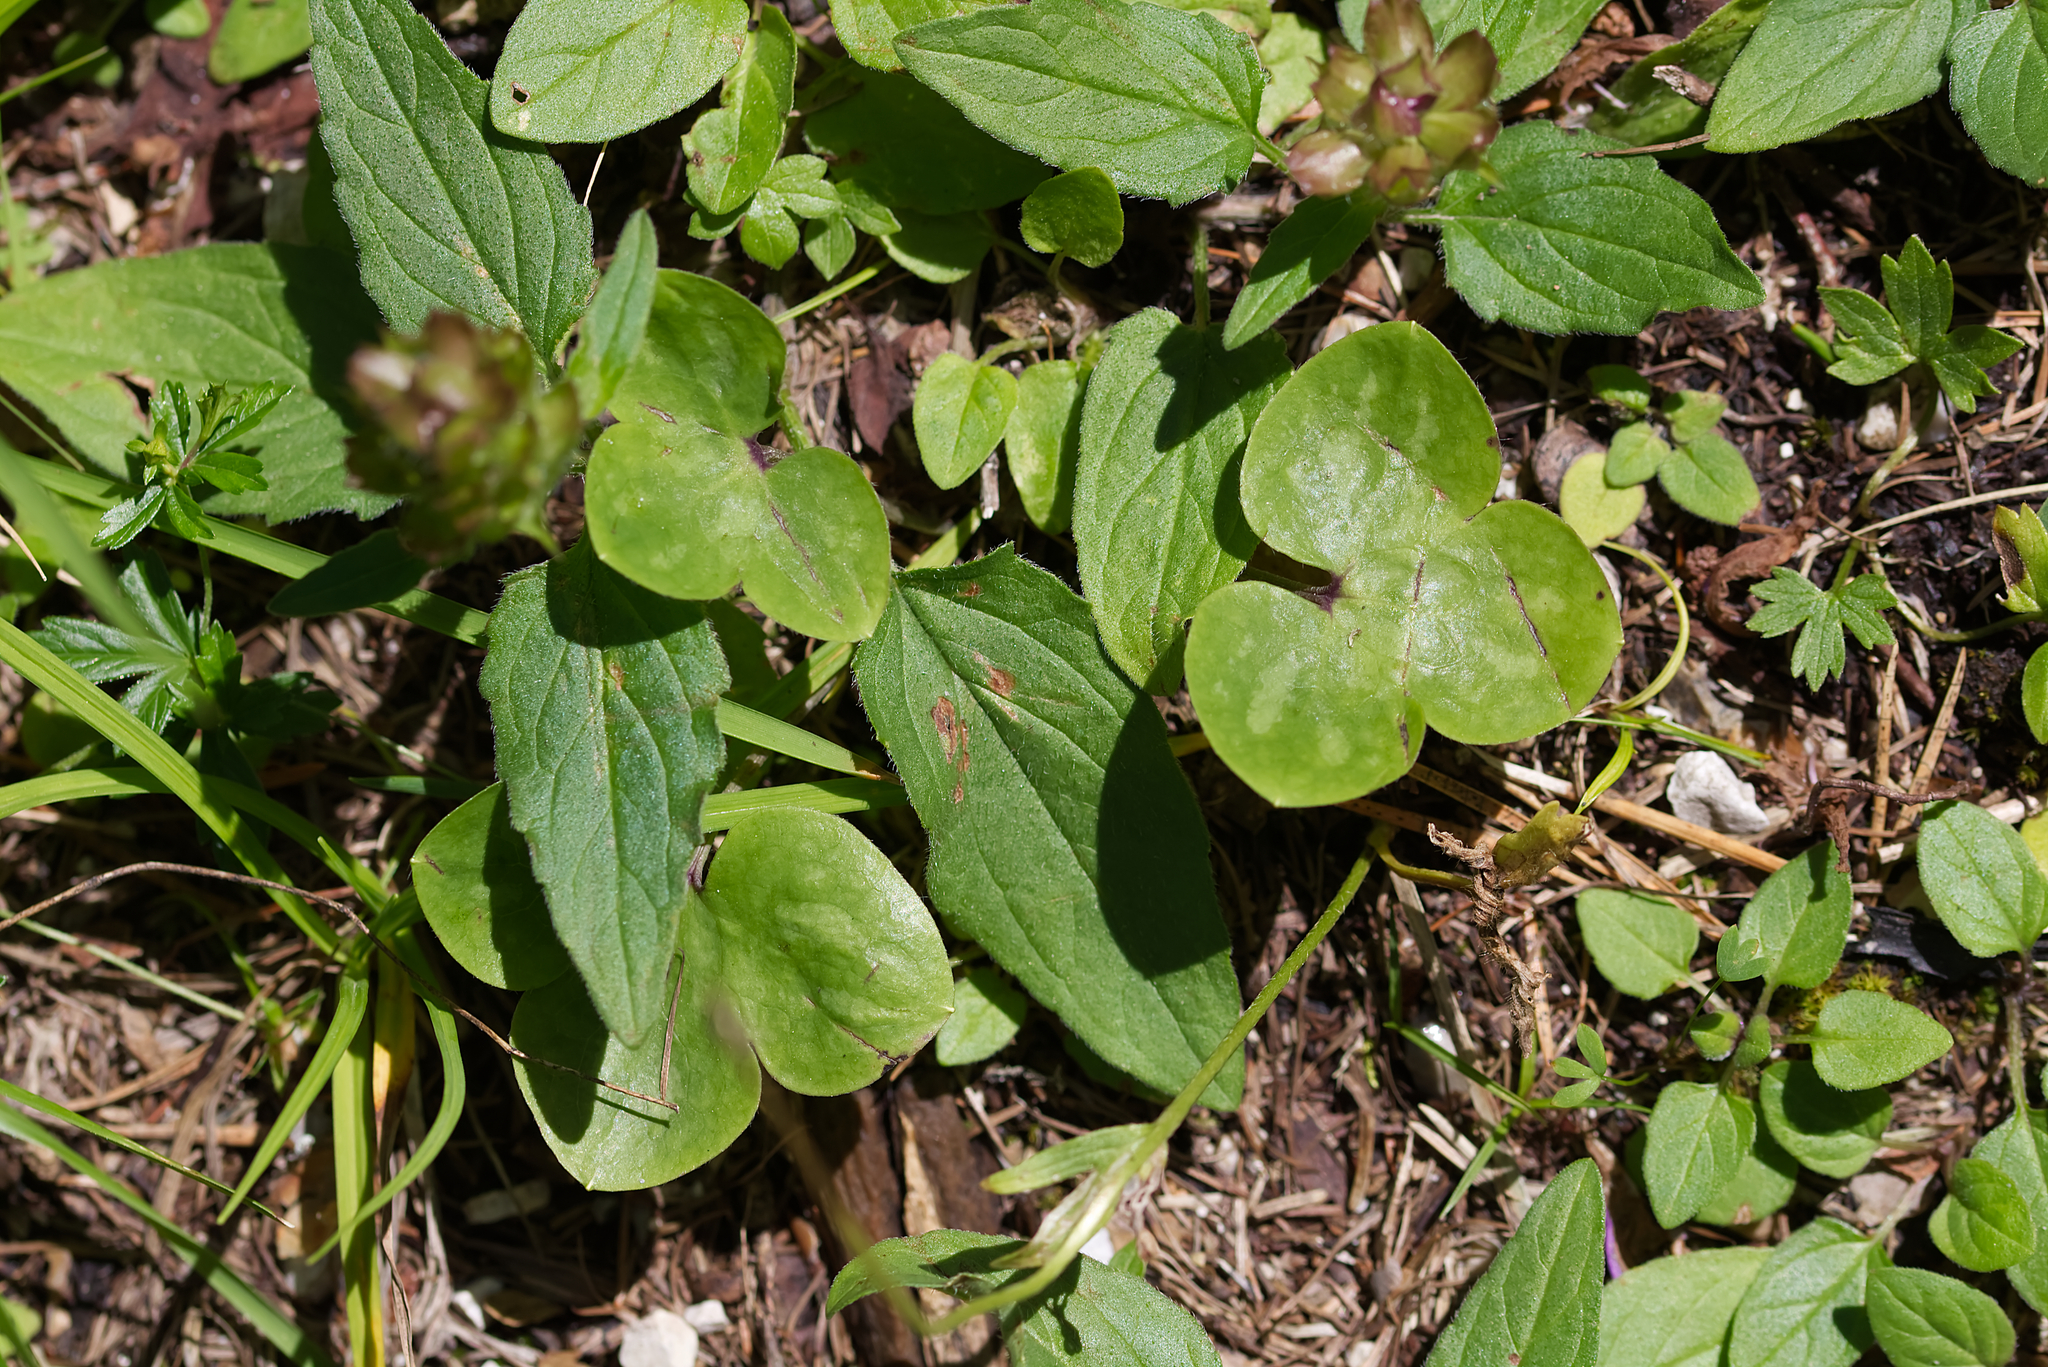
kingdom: Plantae
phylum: Tracheophyta
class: Magnoliopsida
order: Ranunculales
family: Ranunculaceae
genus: Hepatica
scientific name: Hepatica nobilis
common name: Liverleaf
